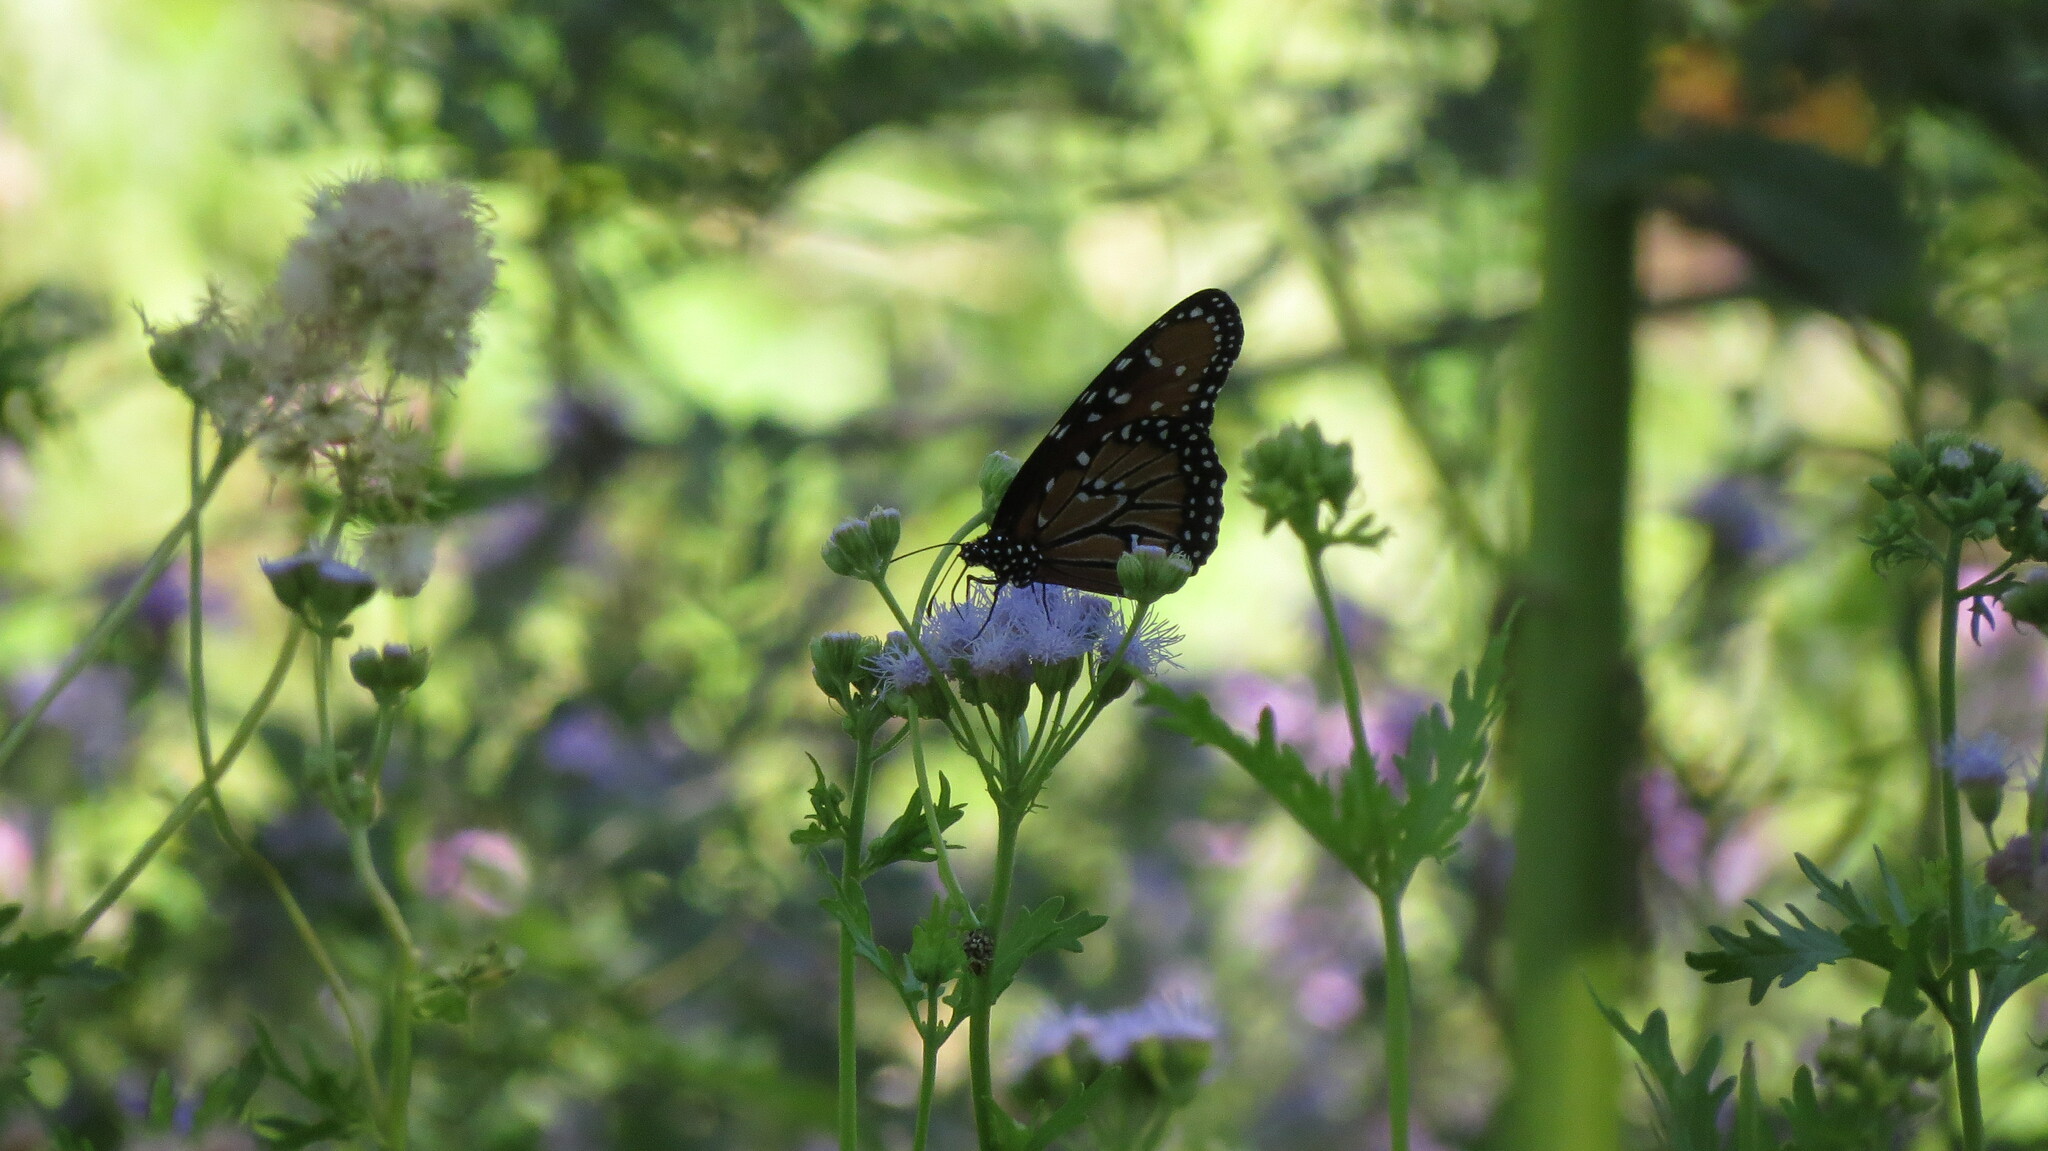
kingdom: Animalia
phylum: Arthropoda
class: Insecta
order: Lepidoptera
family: Nymphalidae
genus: Danaus
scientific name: Danaus gilippus
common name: Queen
